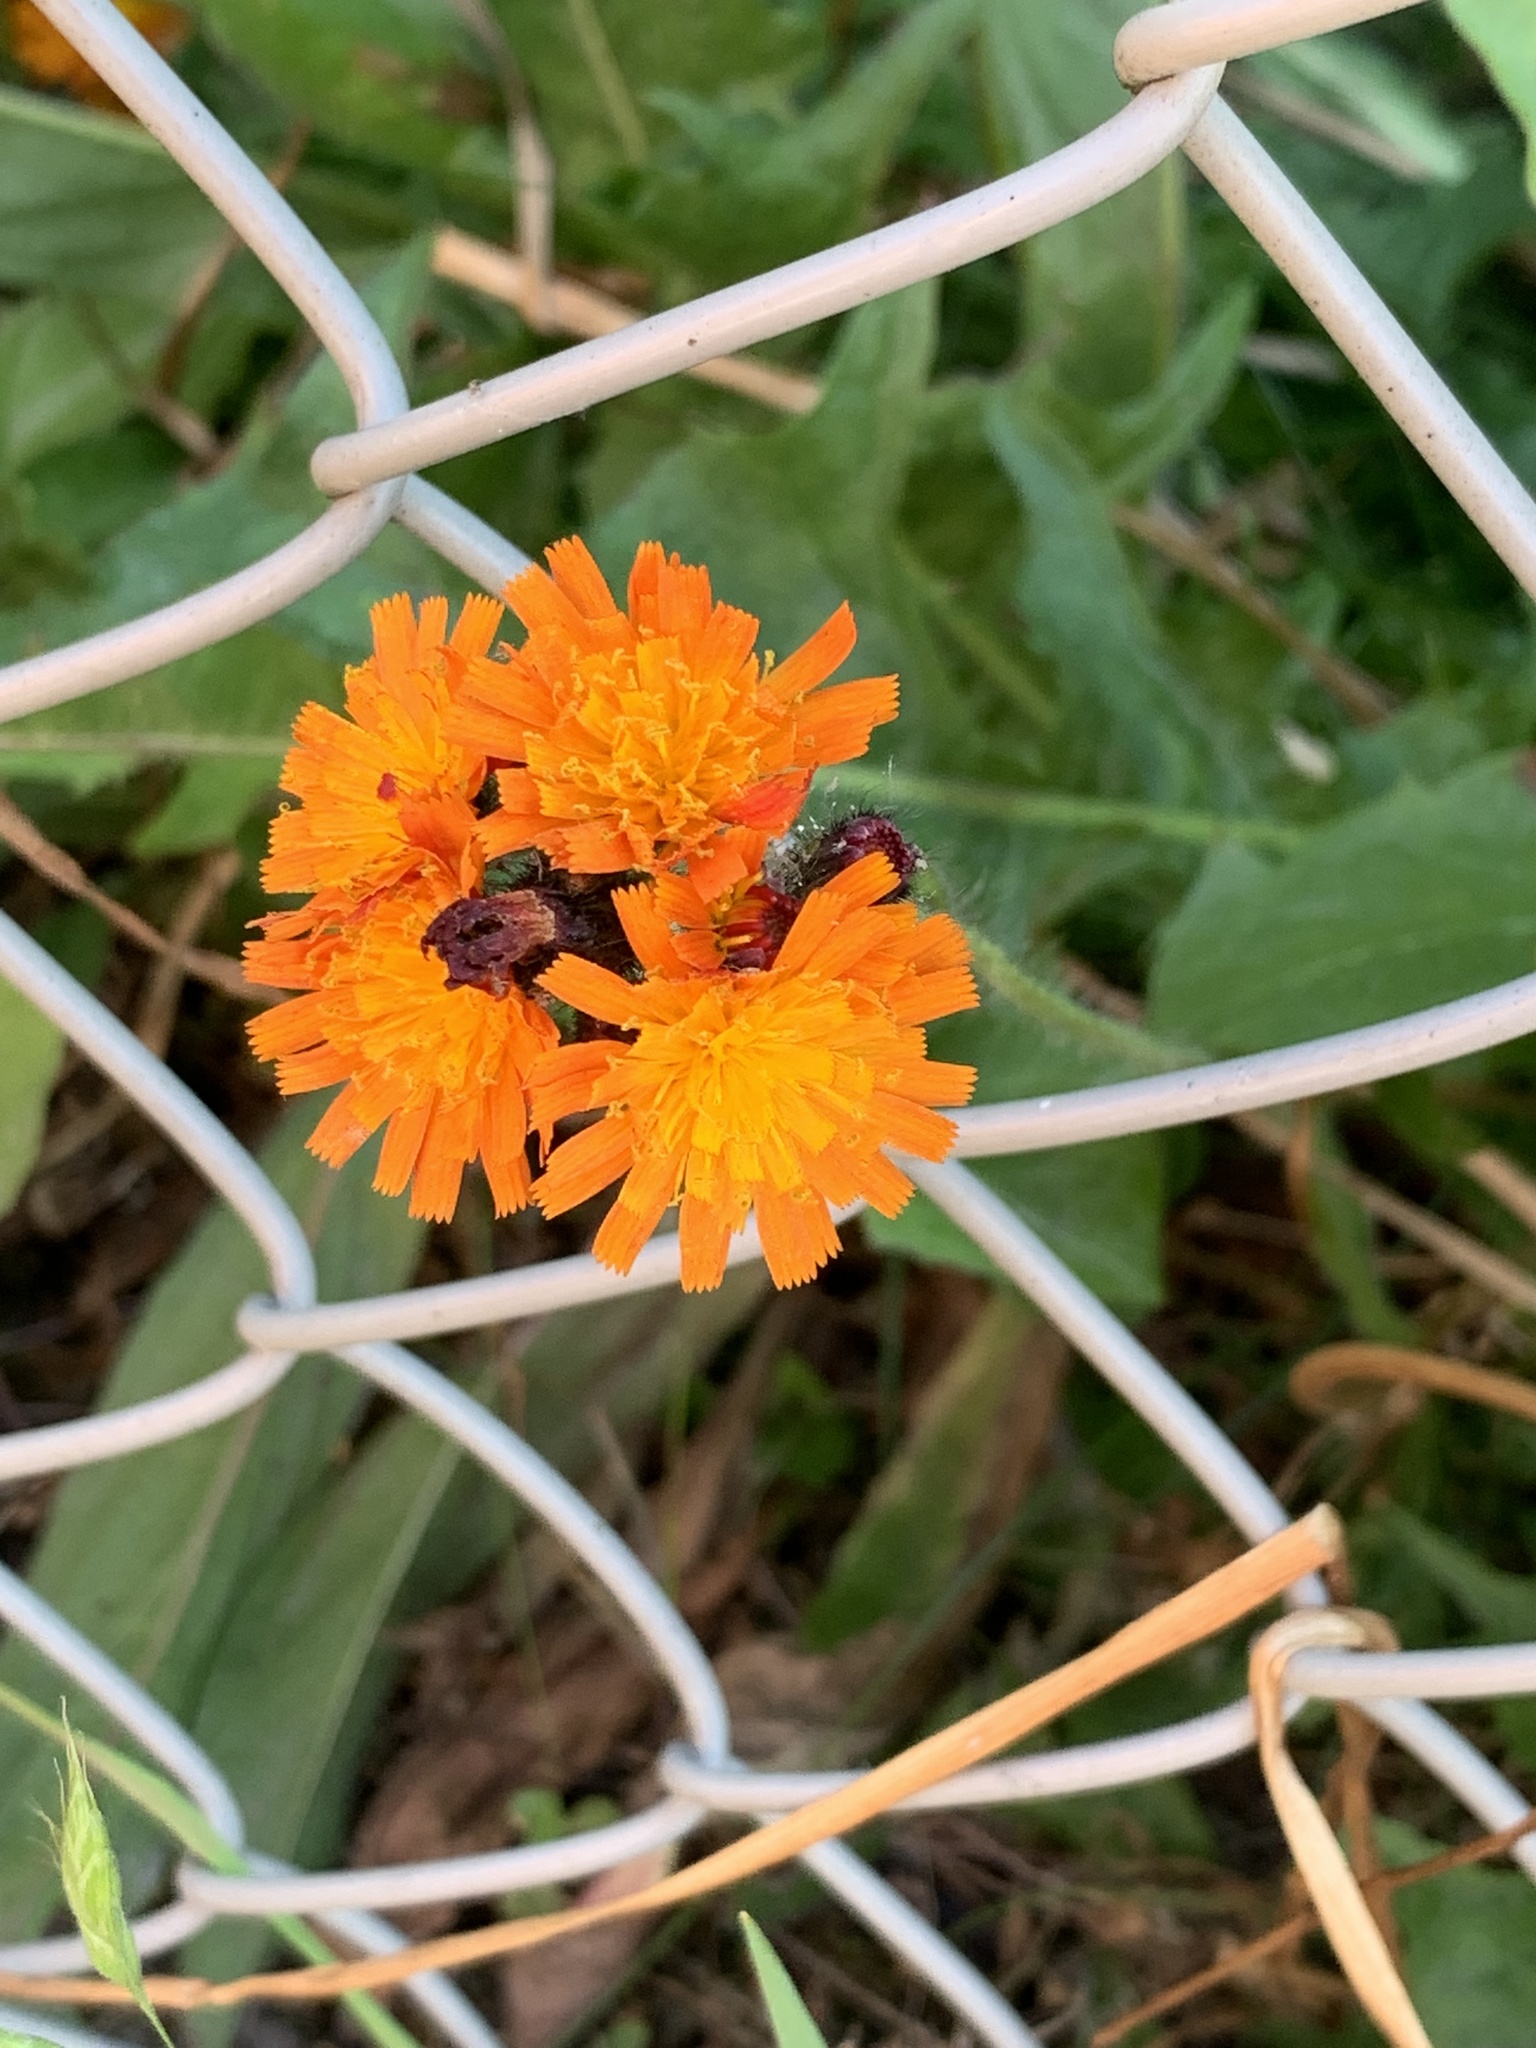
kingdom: Plantae
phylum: Tracheophyta
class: Magnoliopsida
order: Asterales
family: Asteraceae
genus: Pilosella
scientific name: Pilosella aurantiaca
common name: Fox-and-cubs
